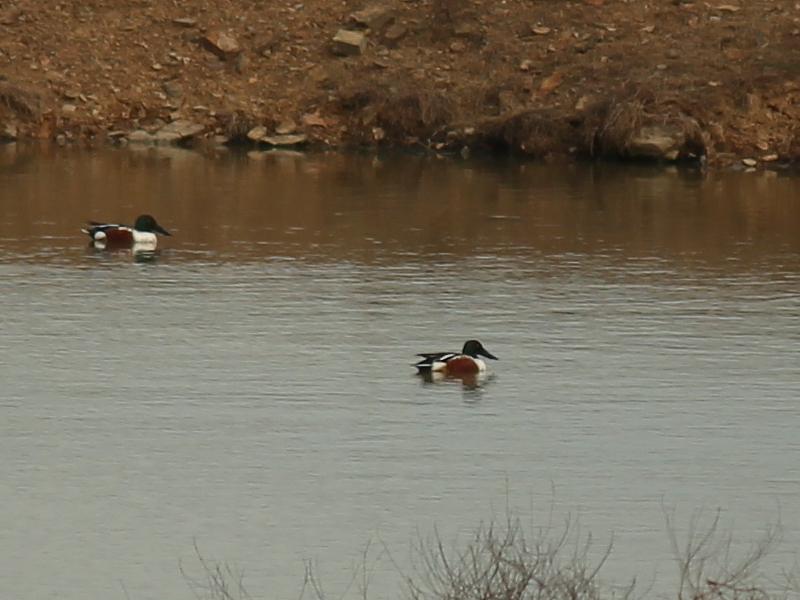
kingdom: Animalia
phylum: Chordata
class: Aves
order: Anseriformes
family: Anatidae
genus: Spatula
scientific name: Spatula clypeata
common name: Northern shoveler
